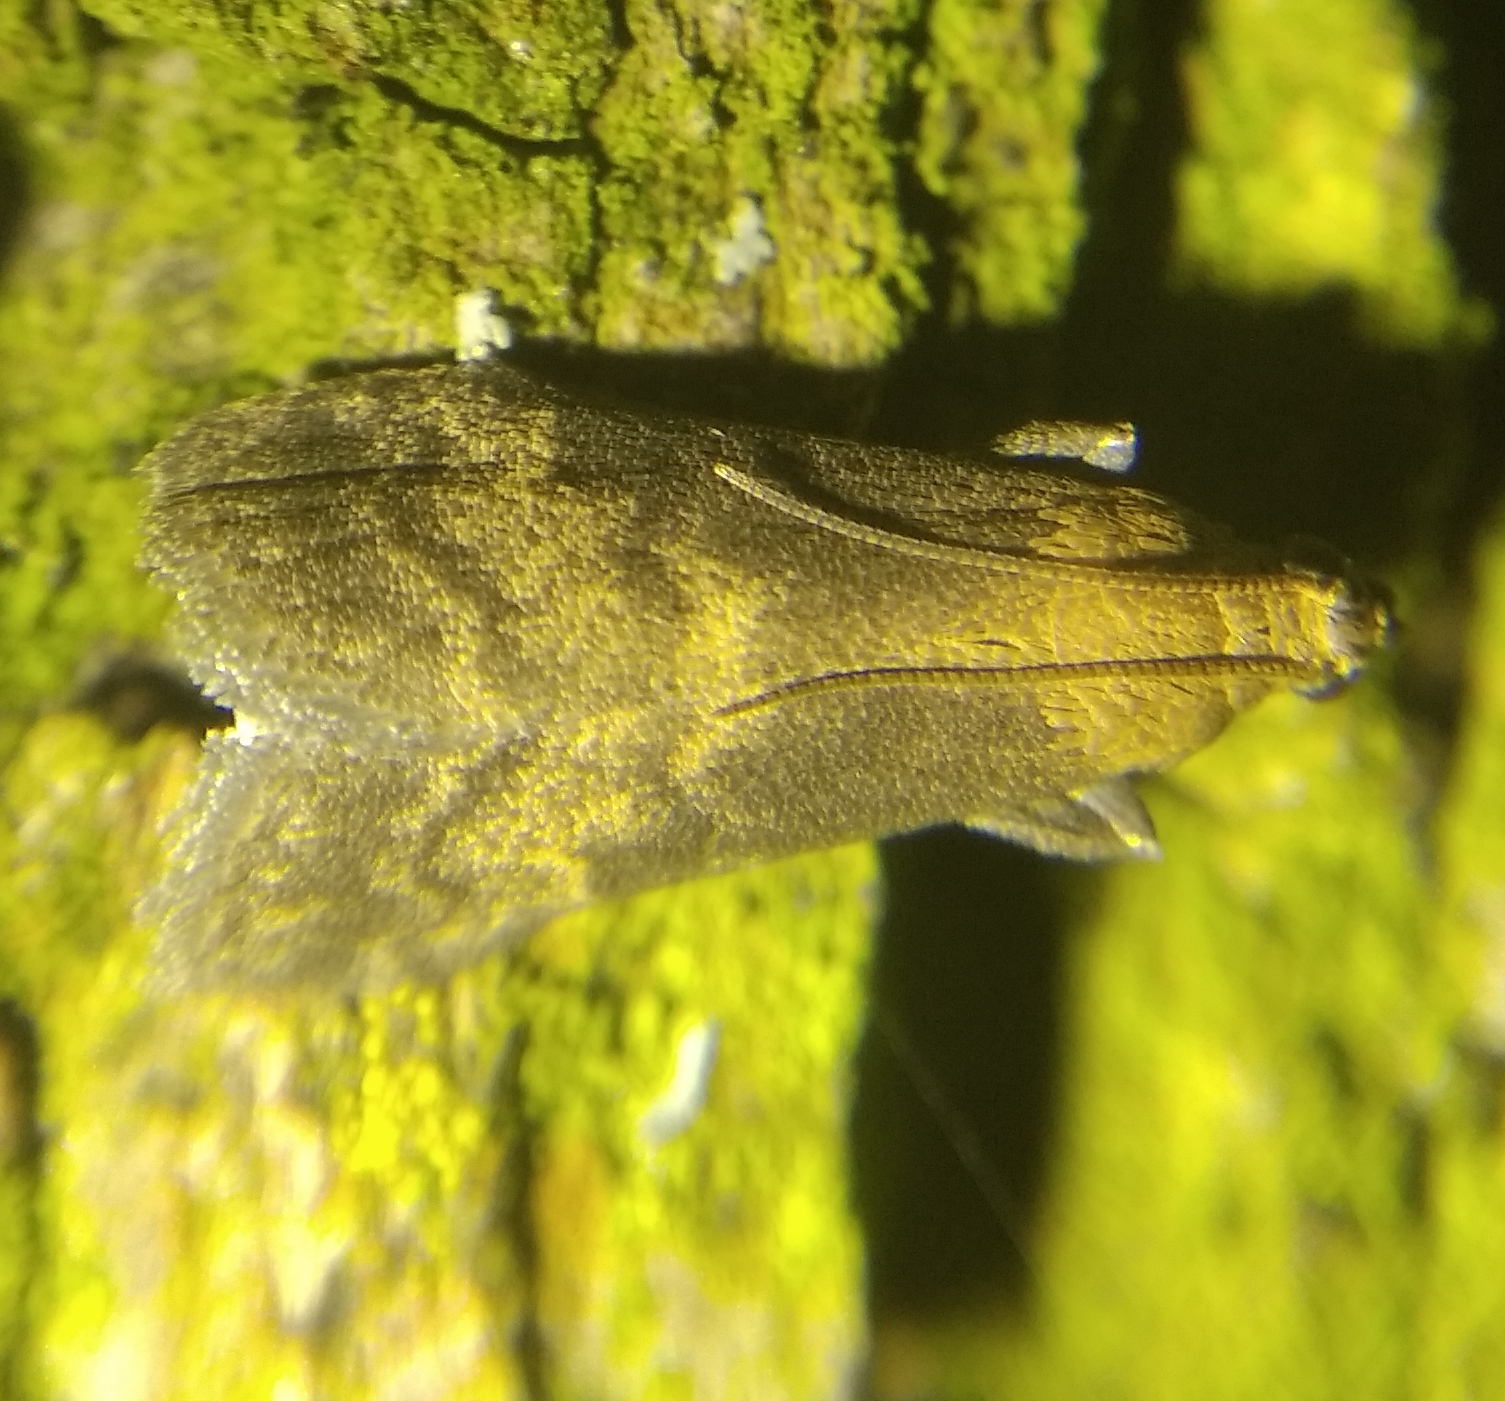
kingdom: Animalia
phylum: Arthropoda
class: Insecta
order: Lepidoptera
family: Pyralidae
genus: Euzophera
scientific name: Euzophera fuliginosella
